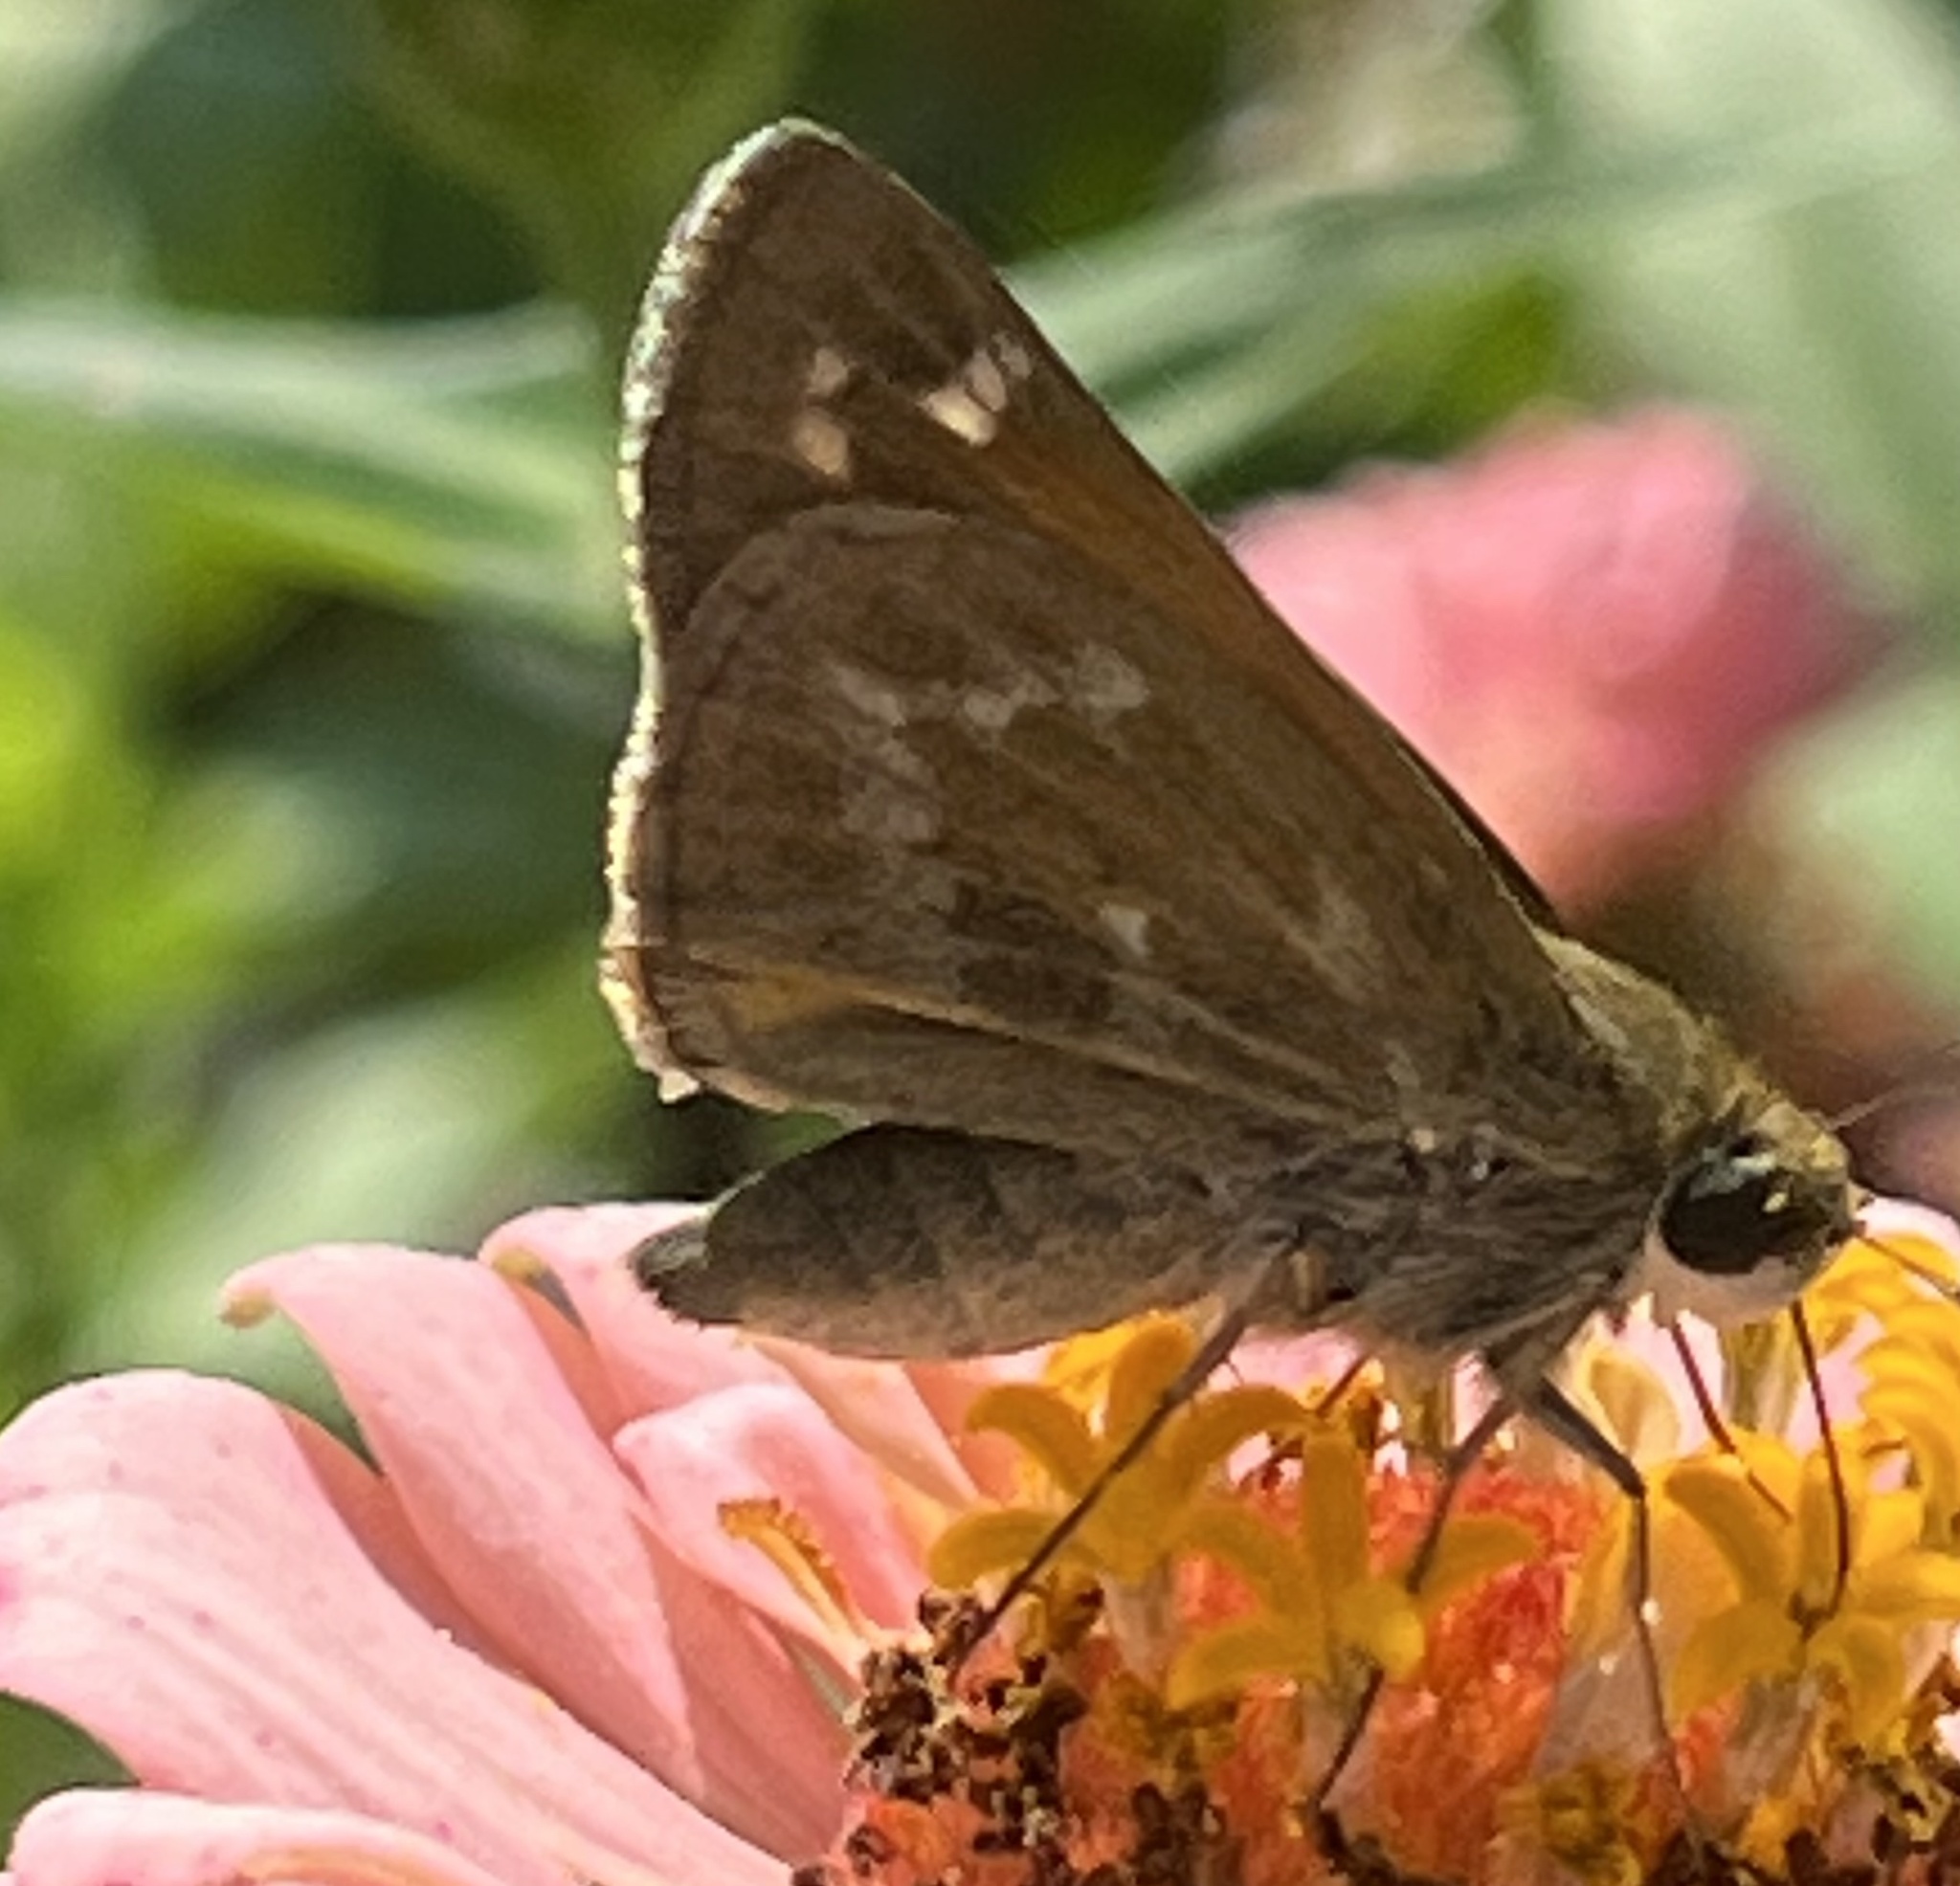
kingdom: Animalia
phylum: Arthropoda
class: Insecta
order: Lepidoptera
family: Hesperiidae
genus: Atalopedes
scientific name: Atalopedes
